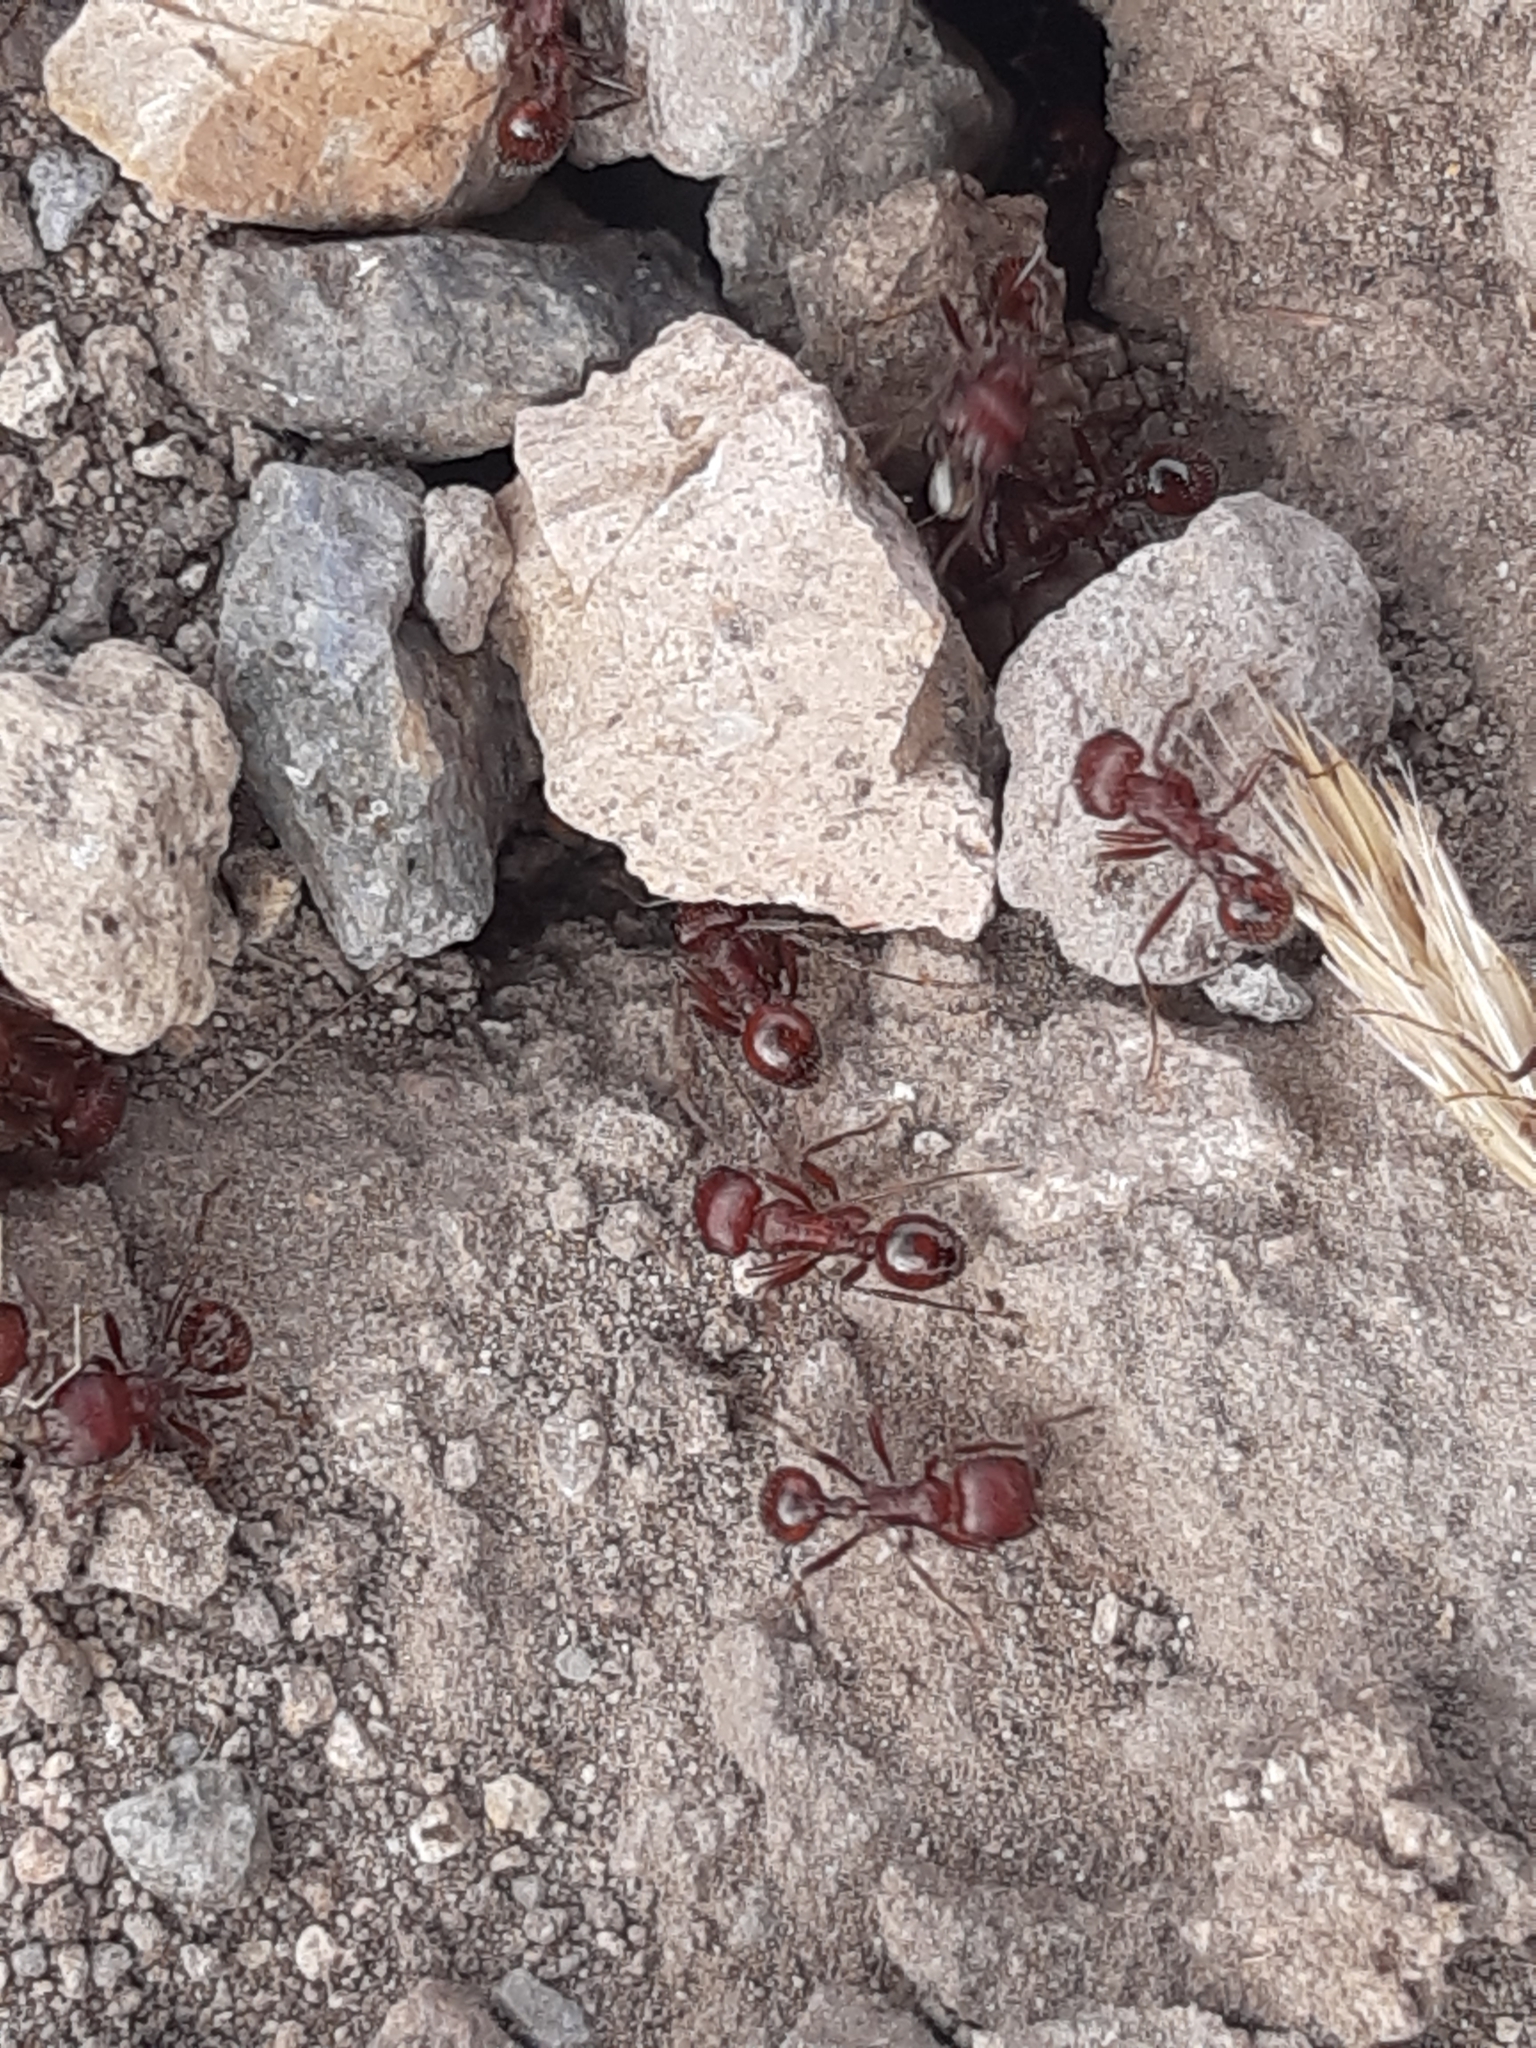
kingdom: Animalia
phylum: Arthropoda
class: Insecta
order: Hymenoptera
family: Formicidae
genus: Pogonomyrmex
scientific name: Pogonomyrmex barbatus
